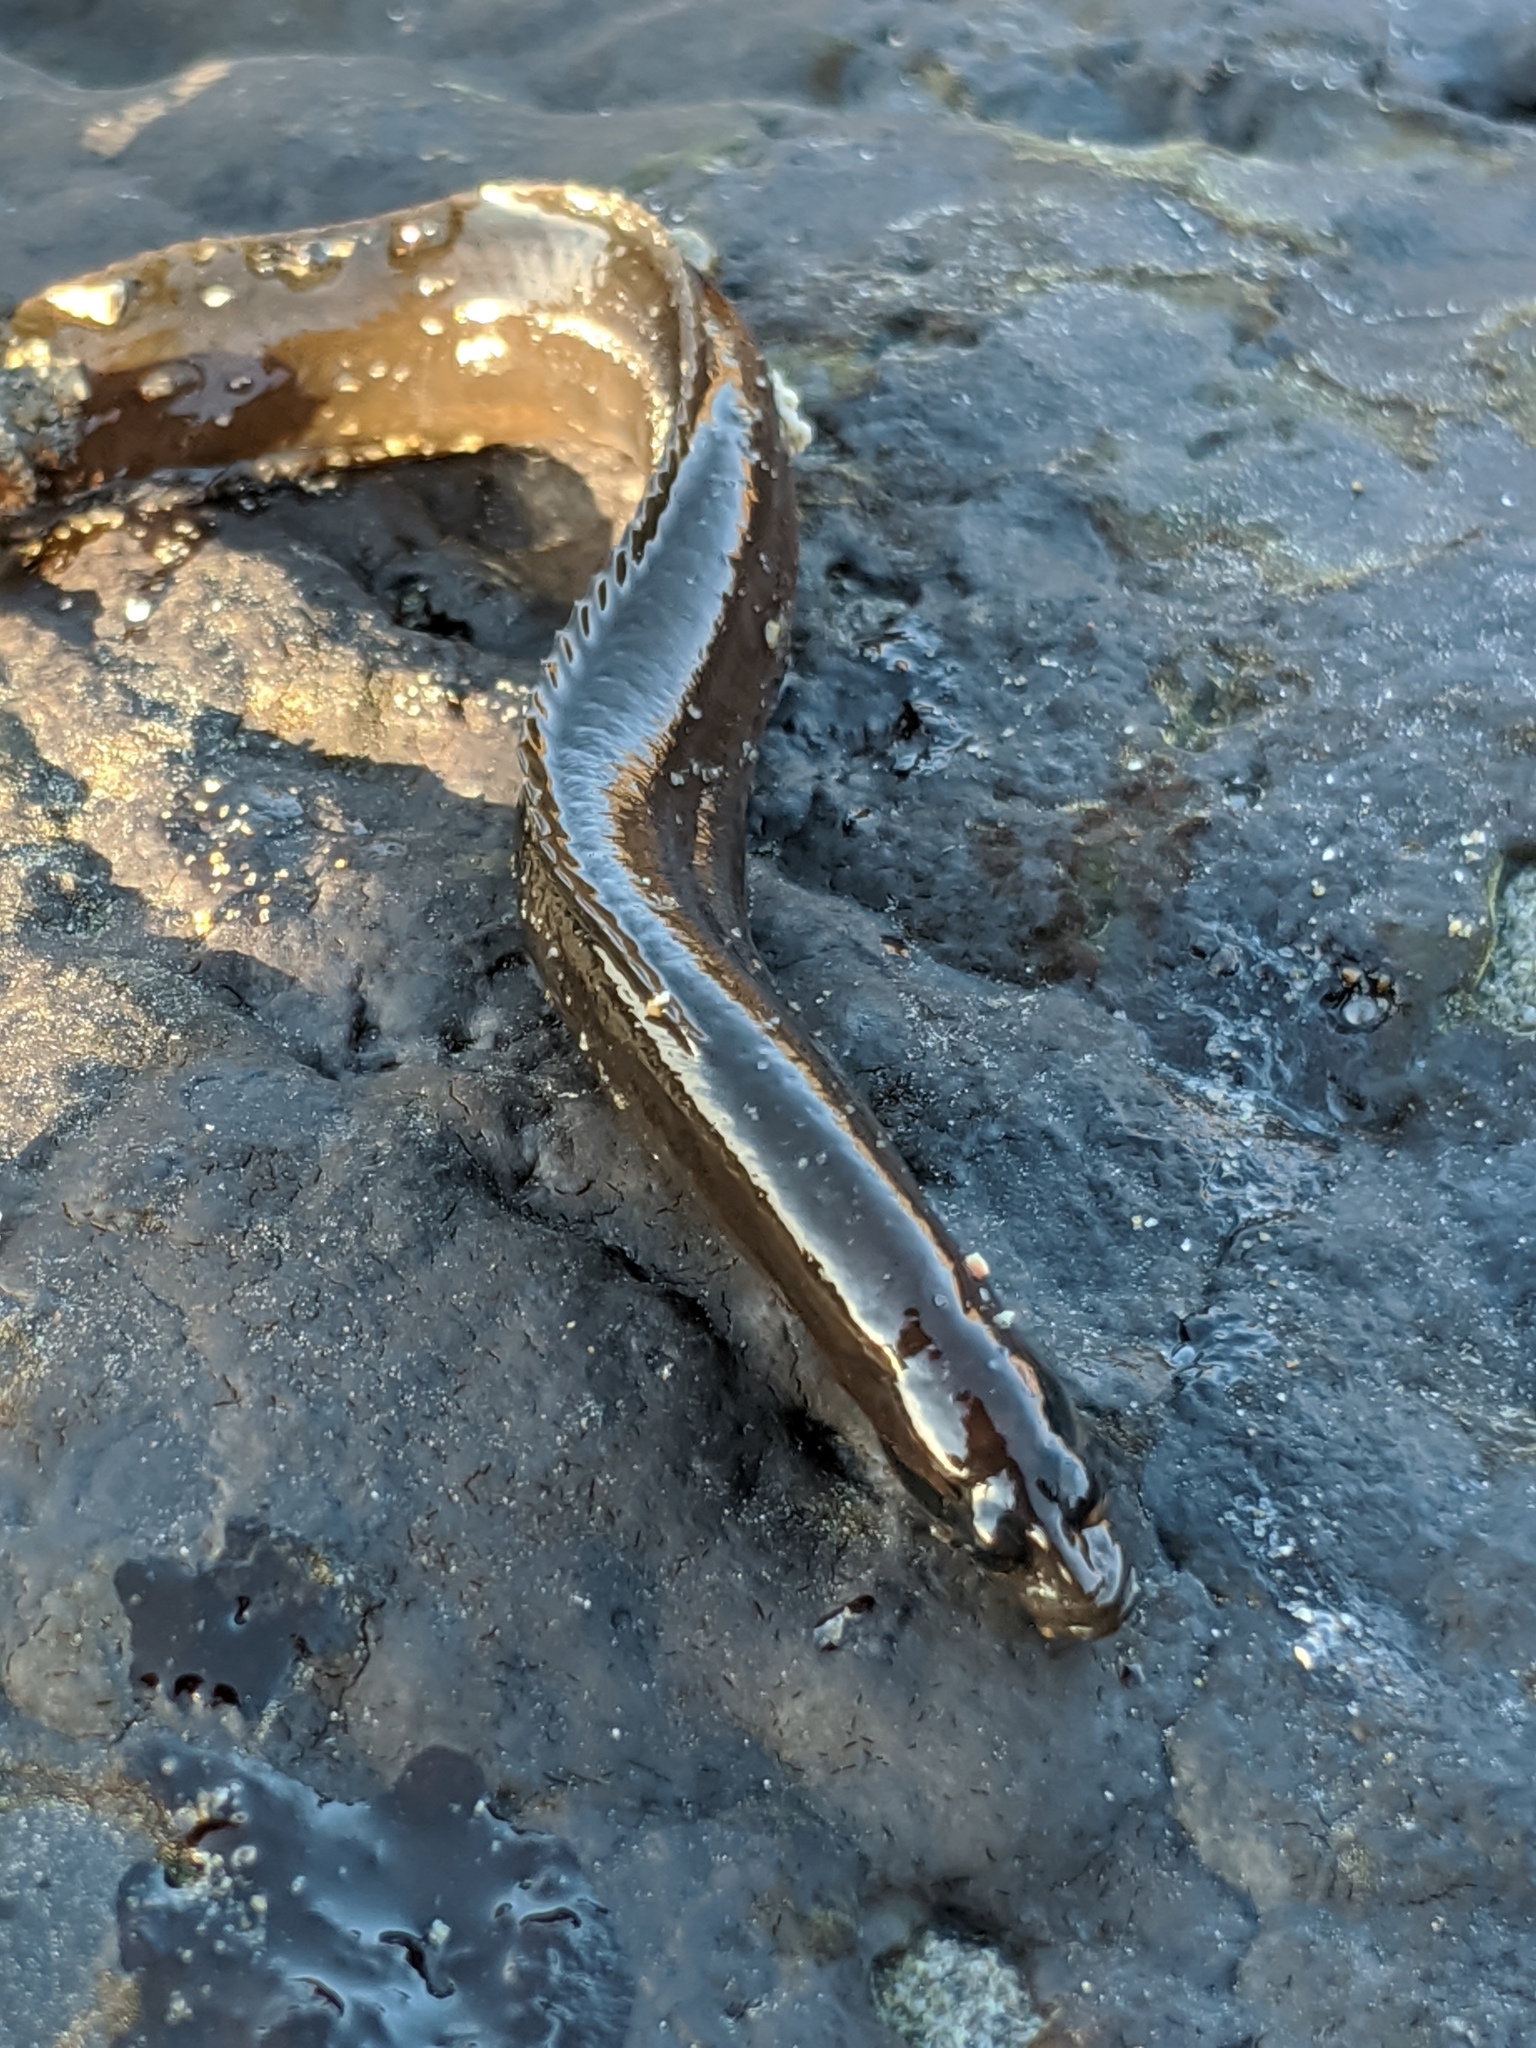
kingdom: Animalia
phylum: Chordata
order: Perciformes
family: Stichaeidae
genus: Xiphister
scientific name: Xiphister atropurpureus
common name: Black prickleback
